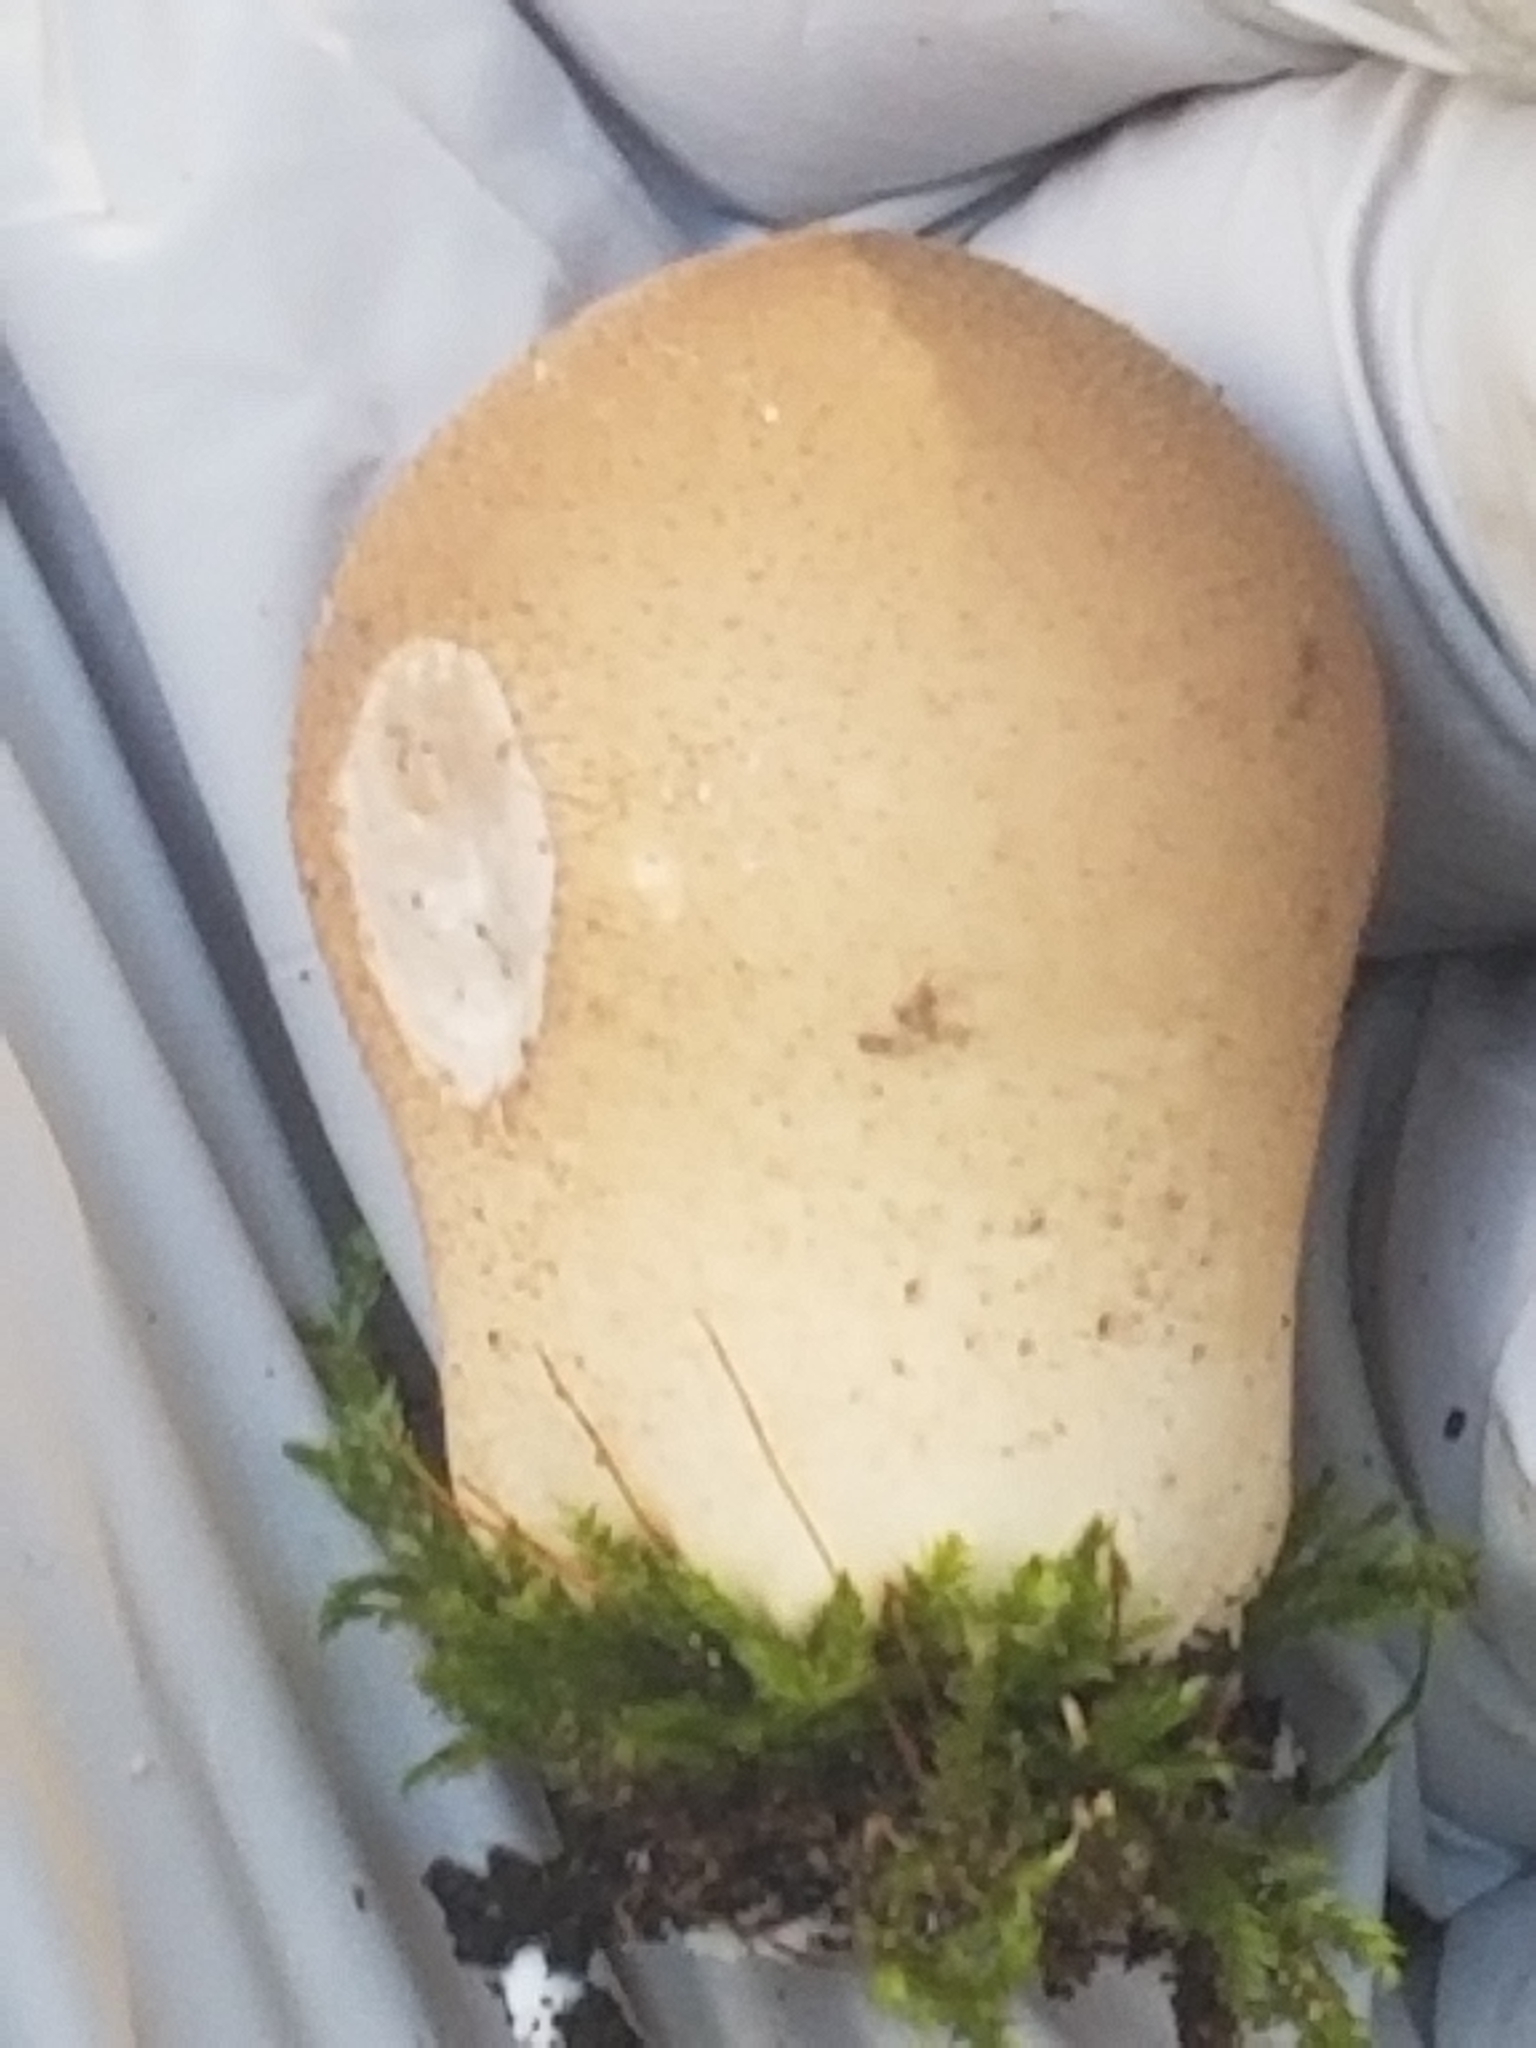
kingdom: Fungi
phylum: Basidiomycota
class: Agaricomycetes
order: Agaricales
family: Lycoperdaceae
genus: Apioperdon
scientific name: Apioperdon pyriforme
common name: Pear-shaped puffball
